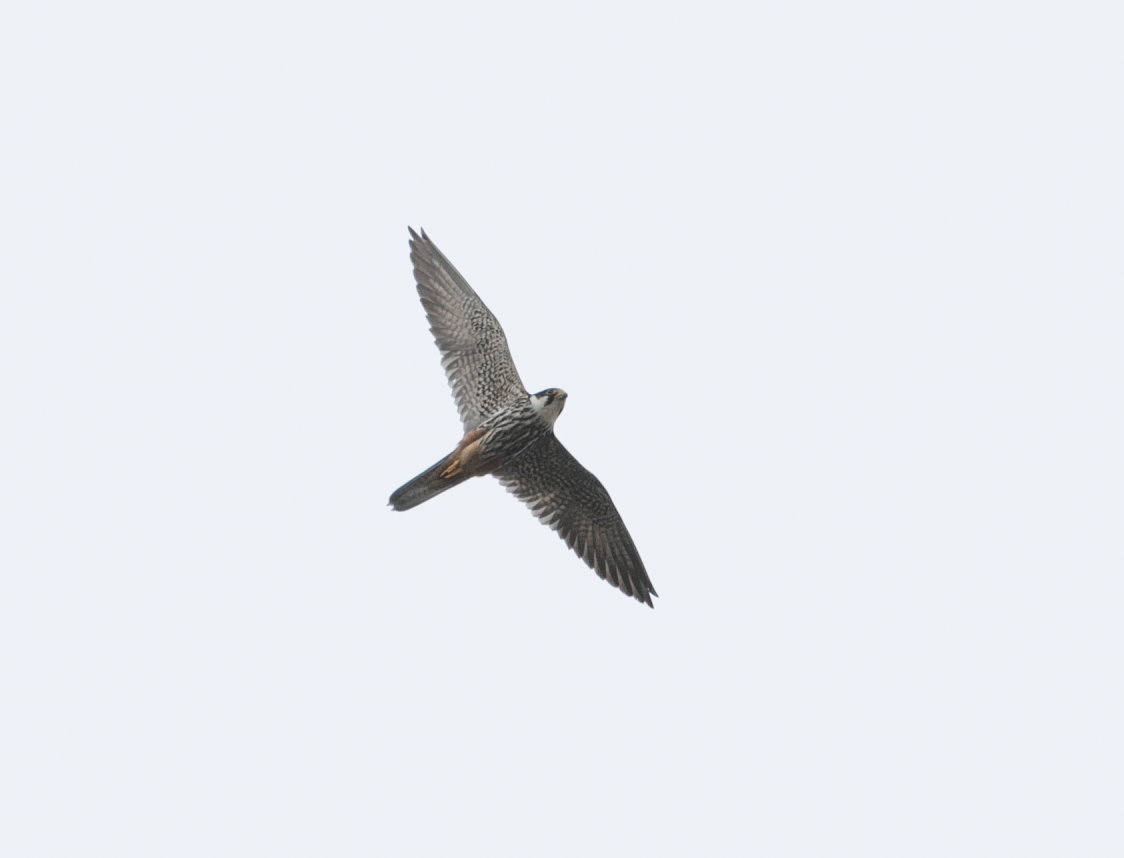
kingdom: Animalia
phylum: Chordata
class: Aves
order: Falconiformes
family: Falconidae
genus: Falco
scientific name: Falco subbuteo
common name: Eurasian hobby
